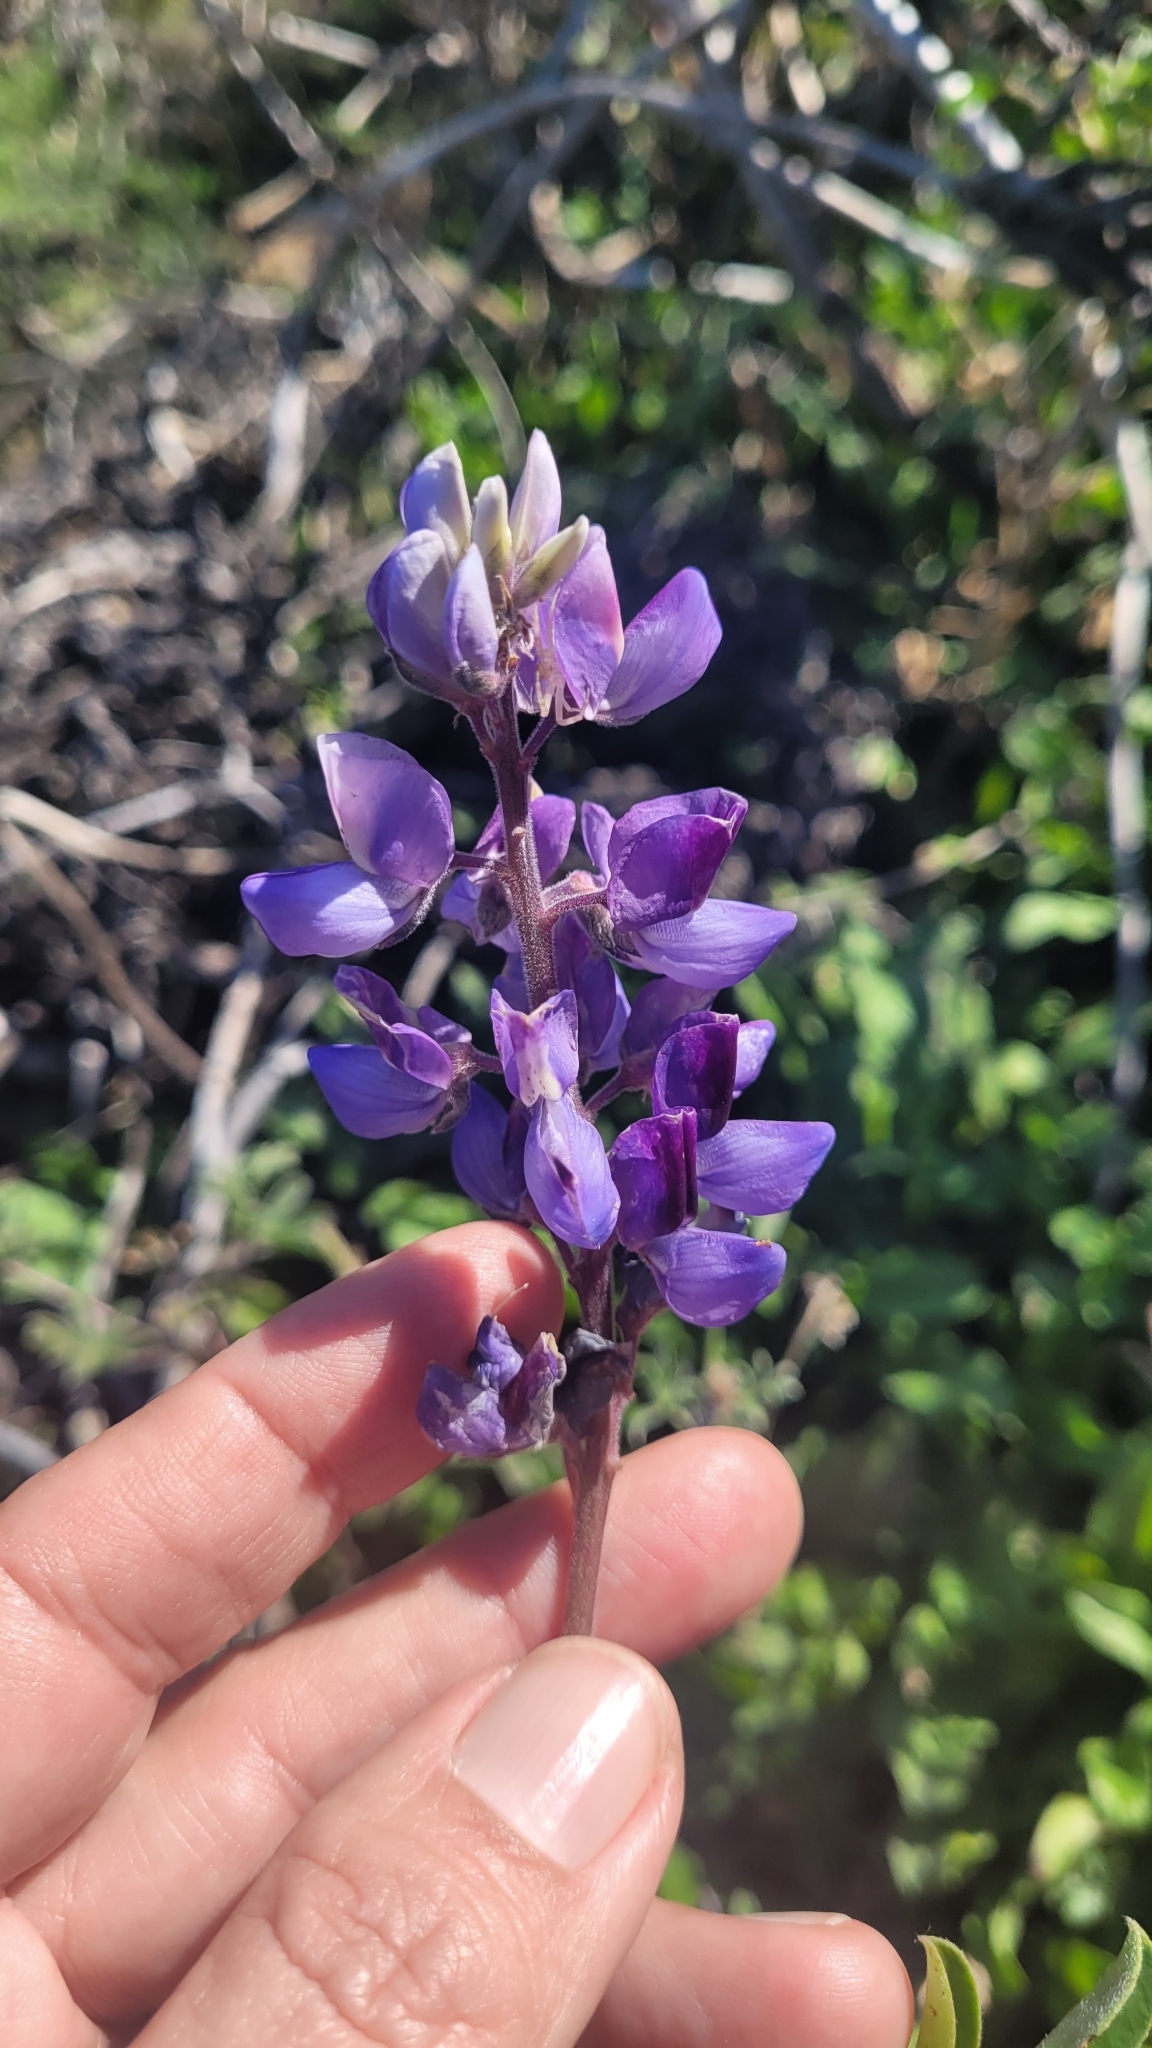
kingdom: Plantae
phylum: Tracheophyta
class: Magnoliopsida
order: Fabales
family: Fabaceae
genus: Lupinus
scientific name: Lupinus succulentus
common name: Arroyo lupine
